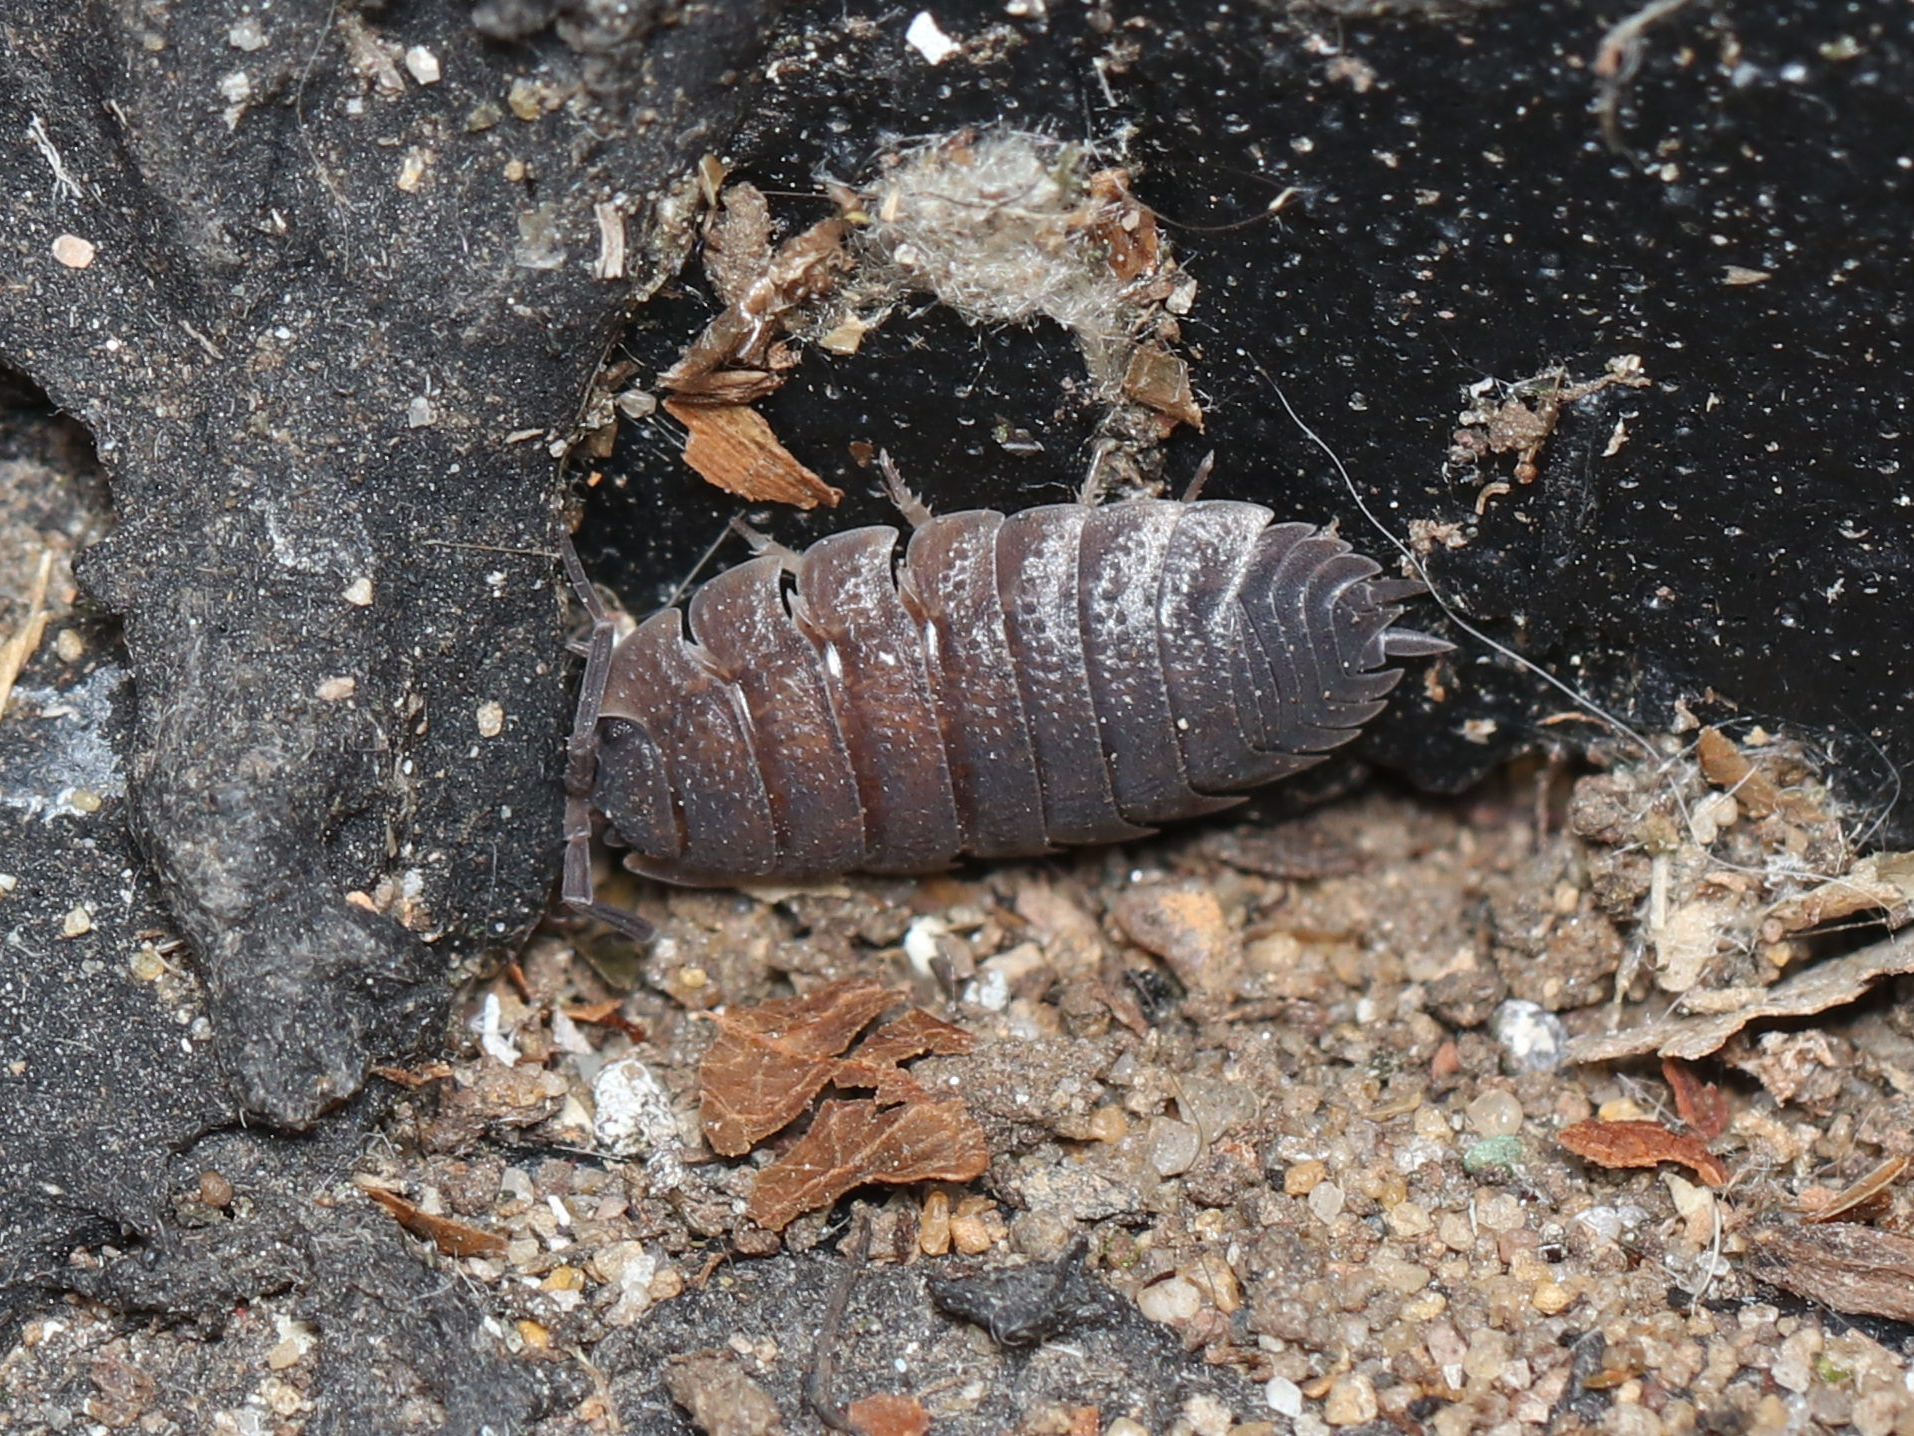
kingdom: Animalia
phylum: Arthropoda
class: Malacostraca
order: Isopoda
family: Porcellionidae
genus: Porcellio
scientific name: Porcellio scaber
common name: Common rough woodlouse
